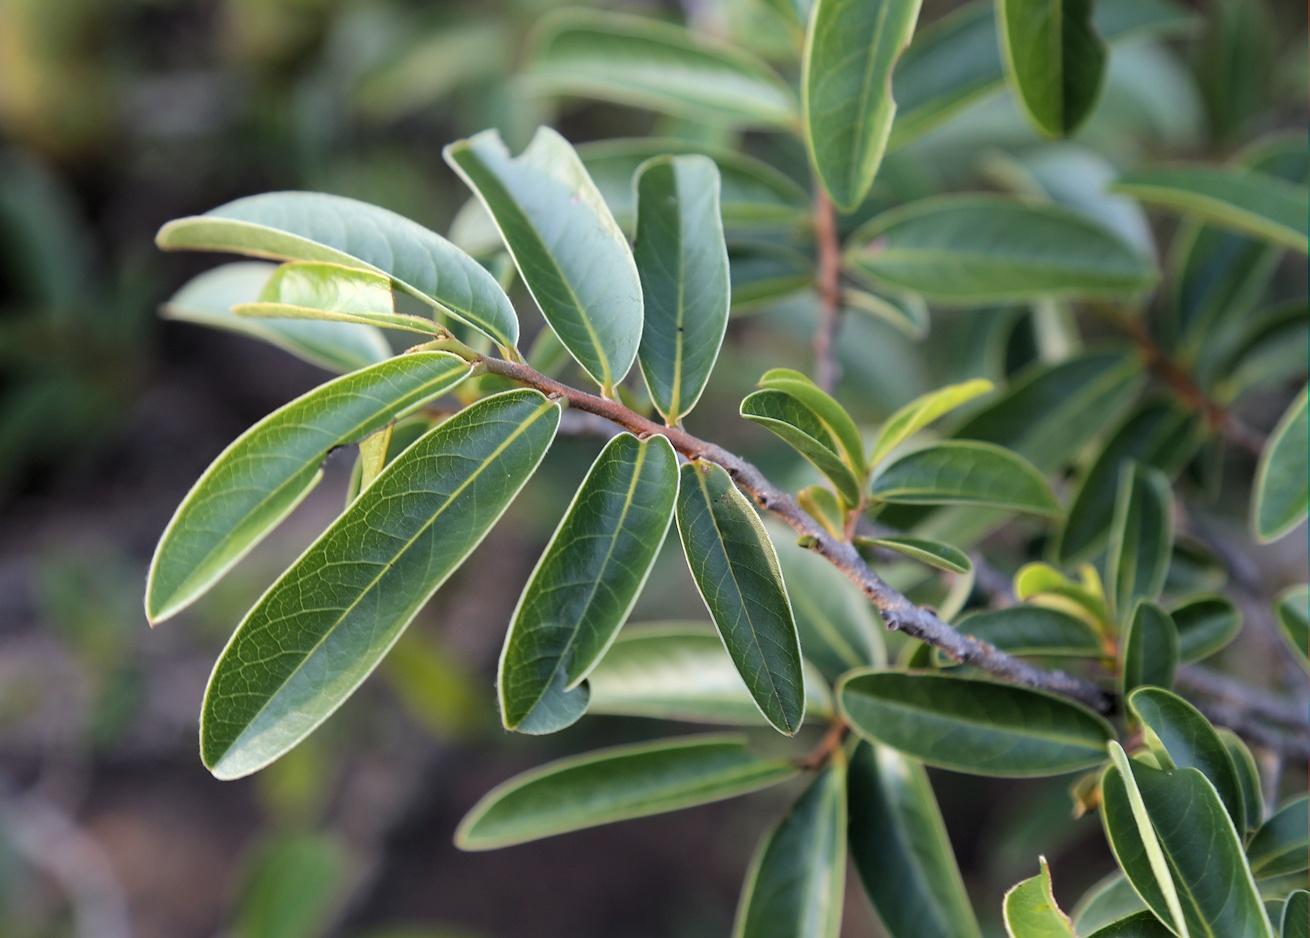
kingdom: Plantae
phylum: Tracheophyta
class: Magnoliopsida
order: Magnoliales
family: Annonaceae
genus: Hexalobus
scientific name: Hexalobus monopetalus
